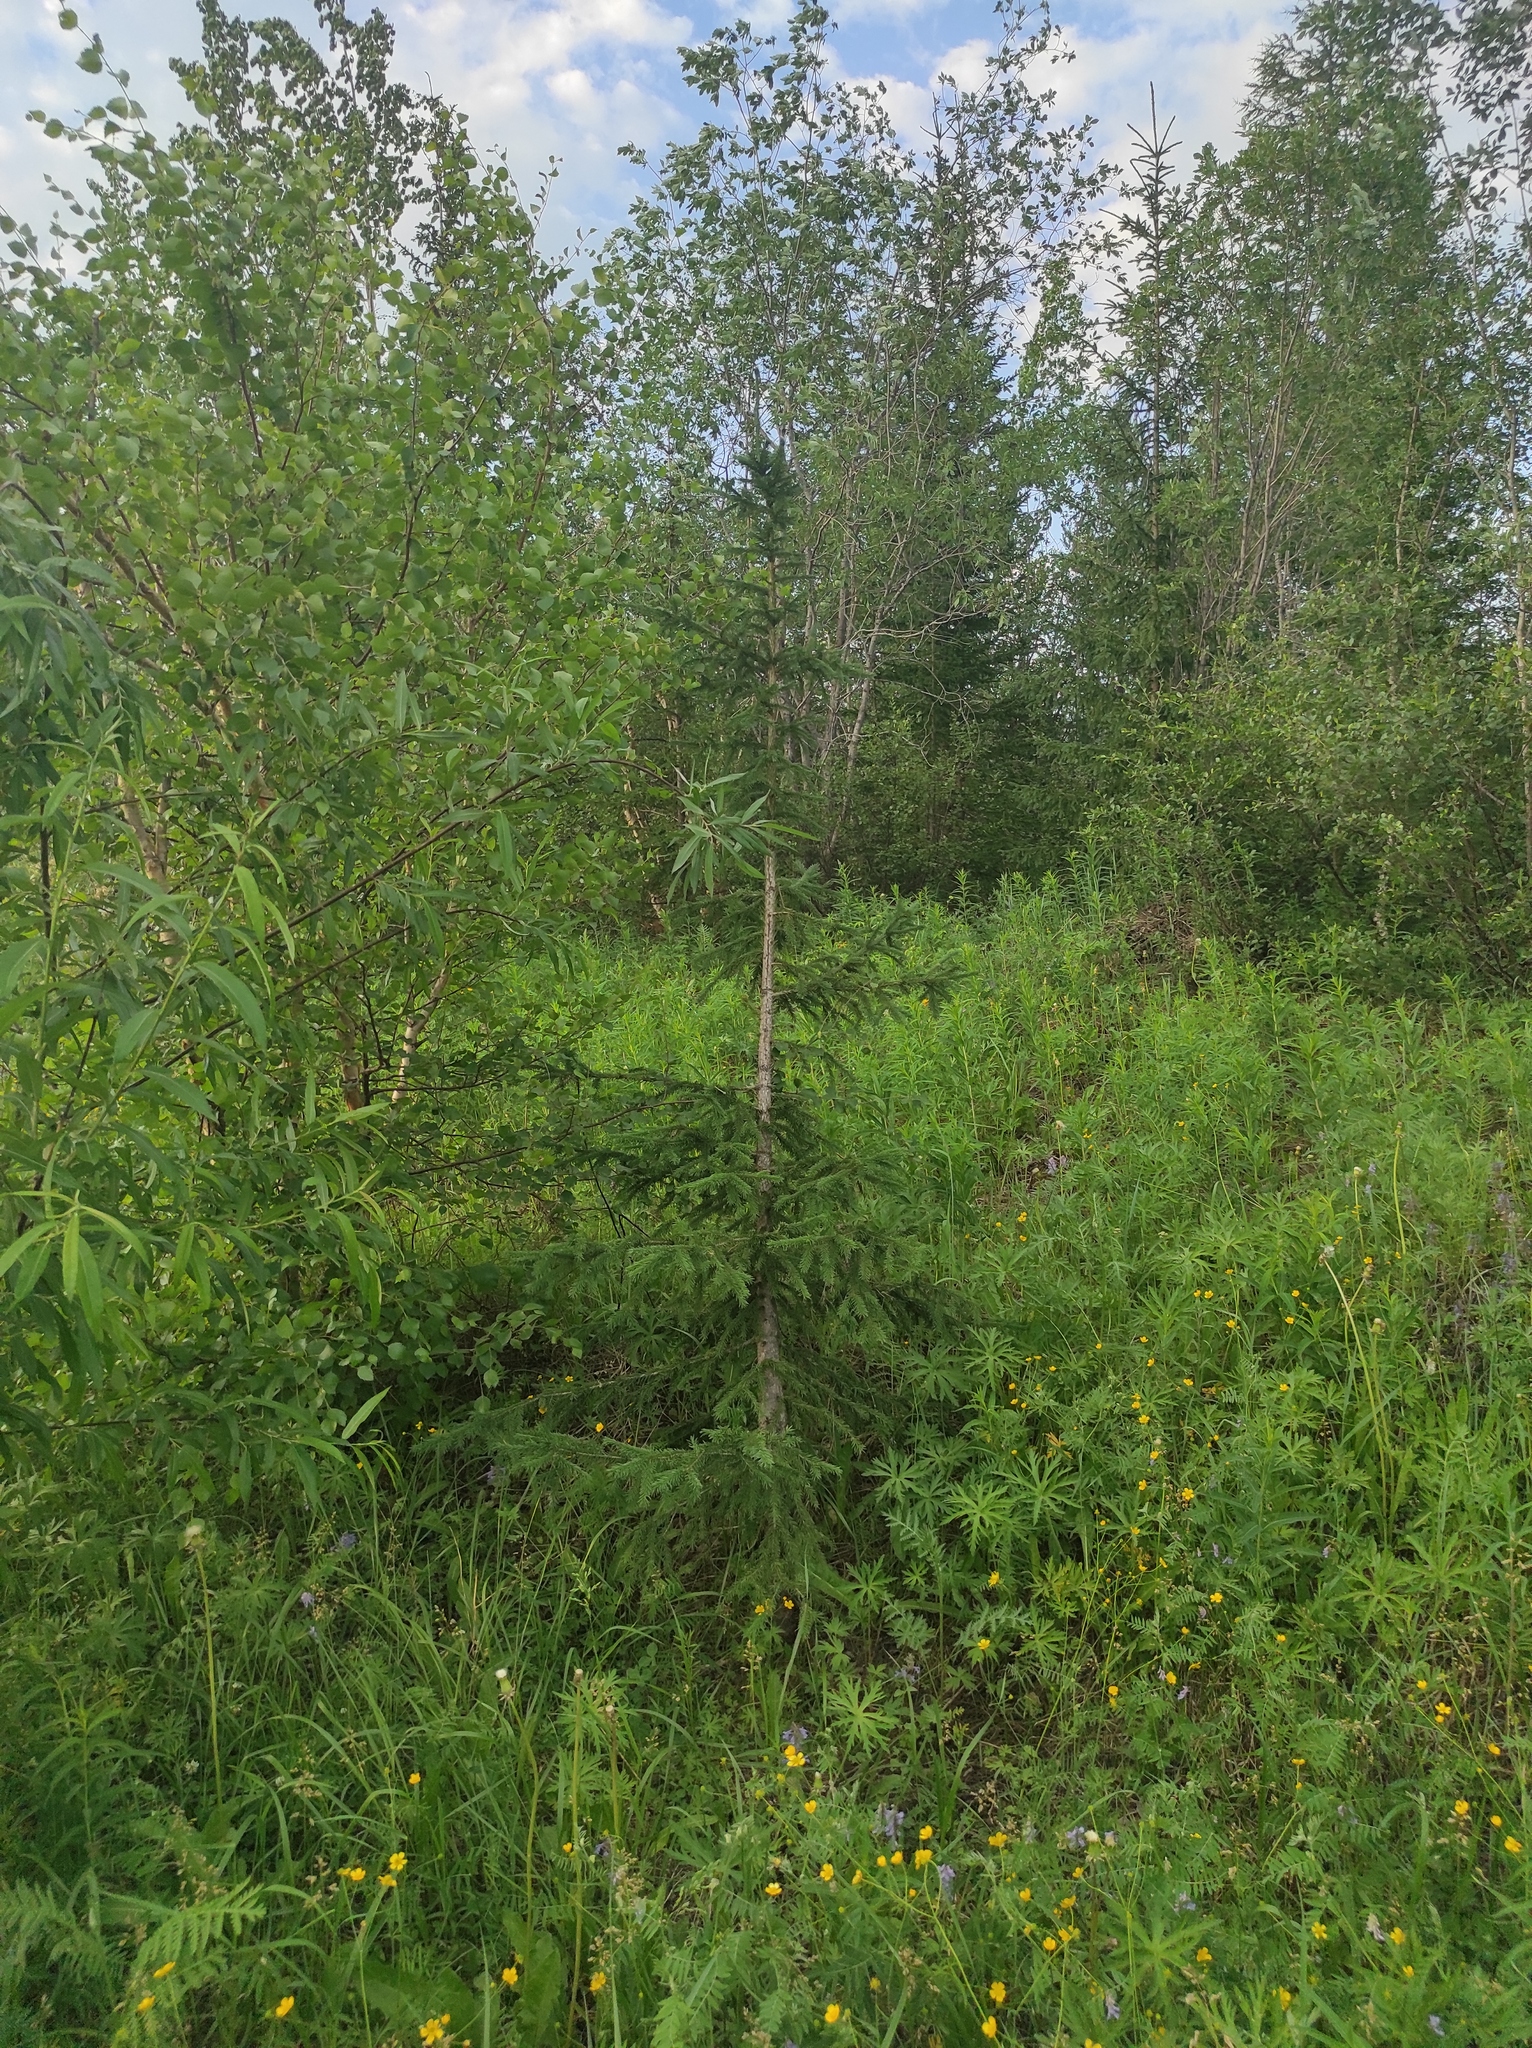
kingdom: Plantae
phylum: Tracheophyta
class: Pinopsida
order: Pinales
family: Pinaceae
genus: Picea
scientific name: Picea obovata
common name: Siberian spruce
